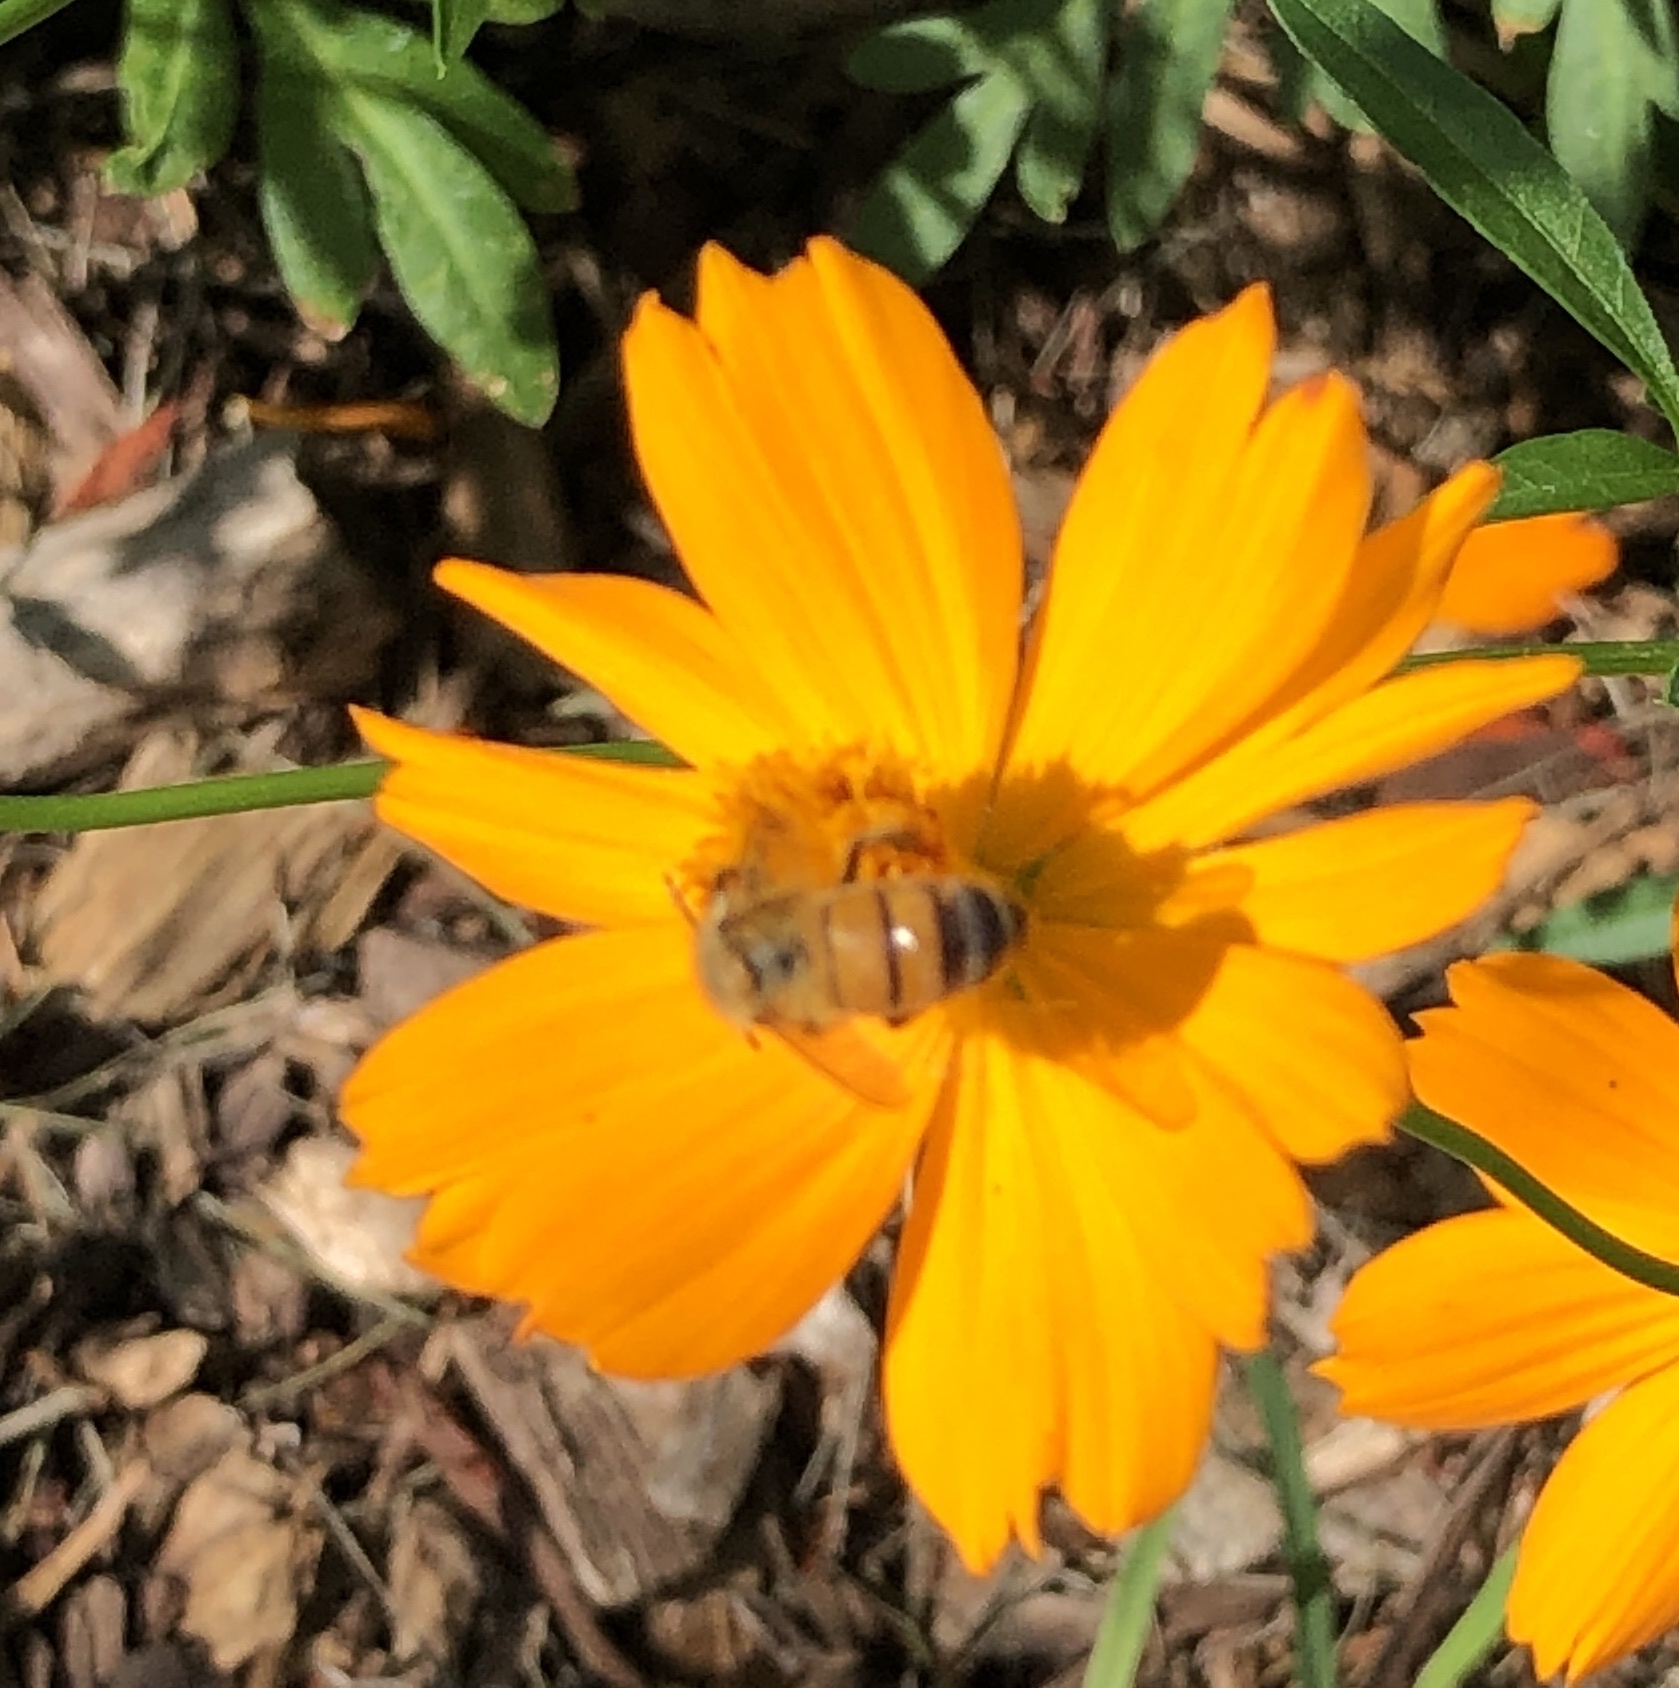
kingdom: Animalia
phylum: Arthropoda
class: Insecta
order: Hymenoptera
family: Apidae
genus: Apis
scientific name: Apis mellifera
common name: Honey bee
